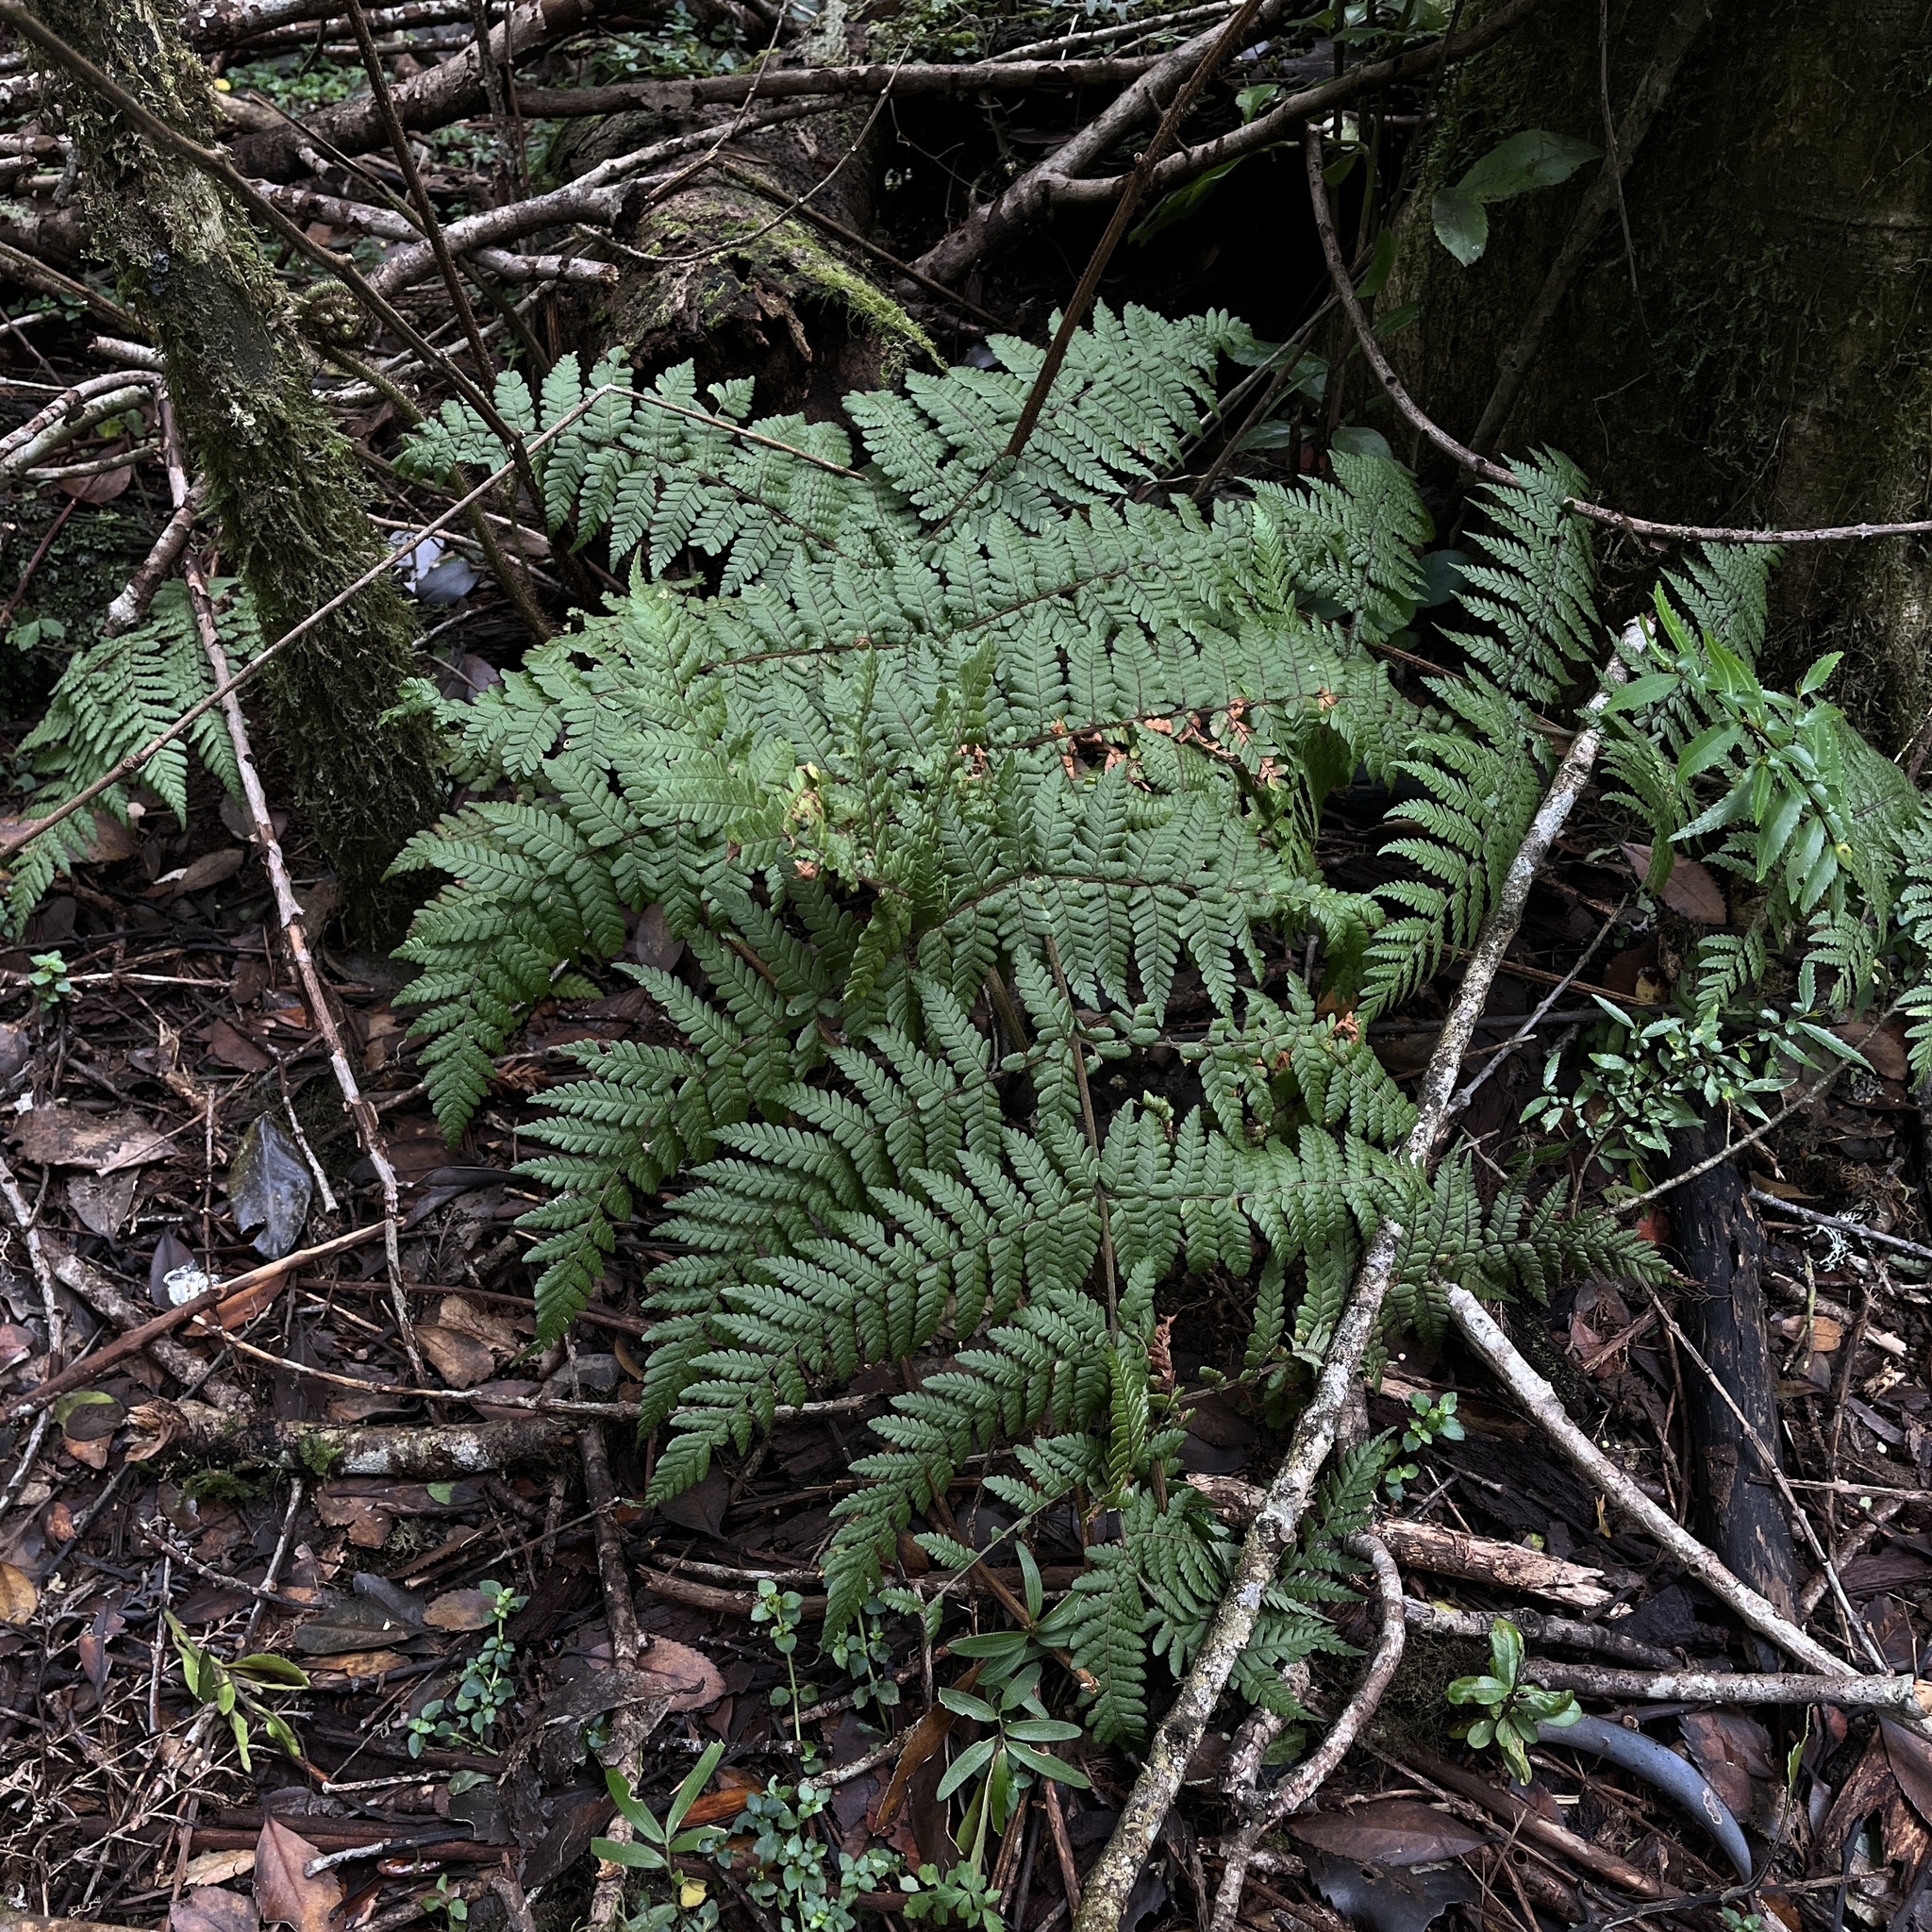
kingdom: Plantae
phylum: Tracheophyta
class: Polypodiopsida
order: Polypodiales
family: Dryopteridaceae
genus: Megalastrum
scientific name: Megalastrum spectabile
